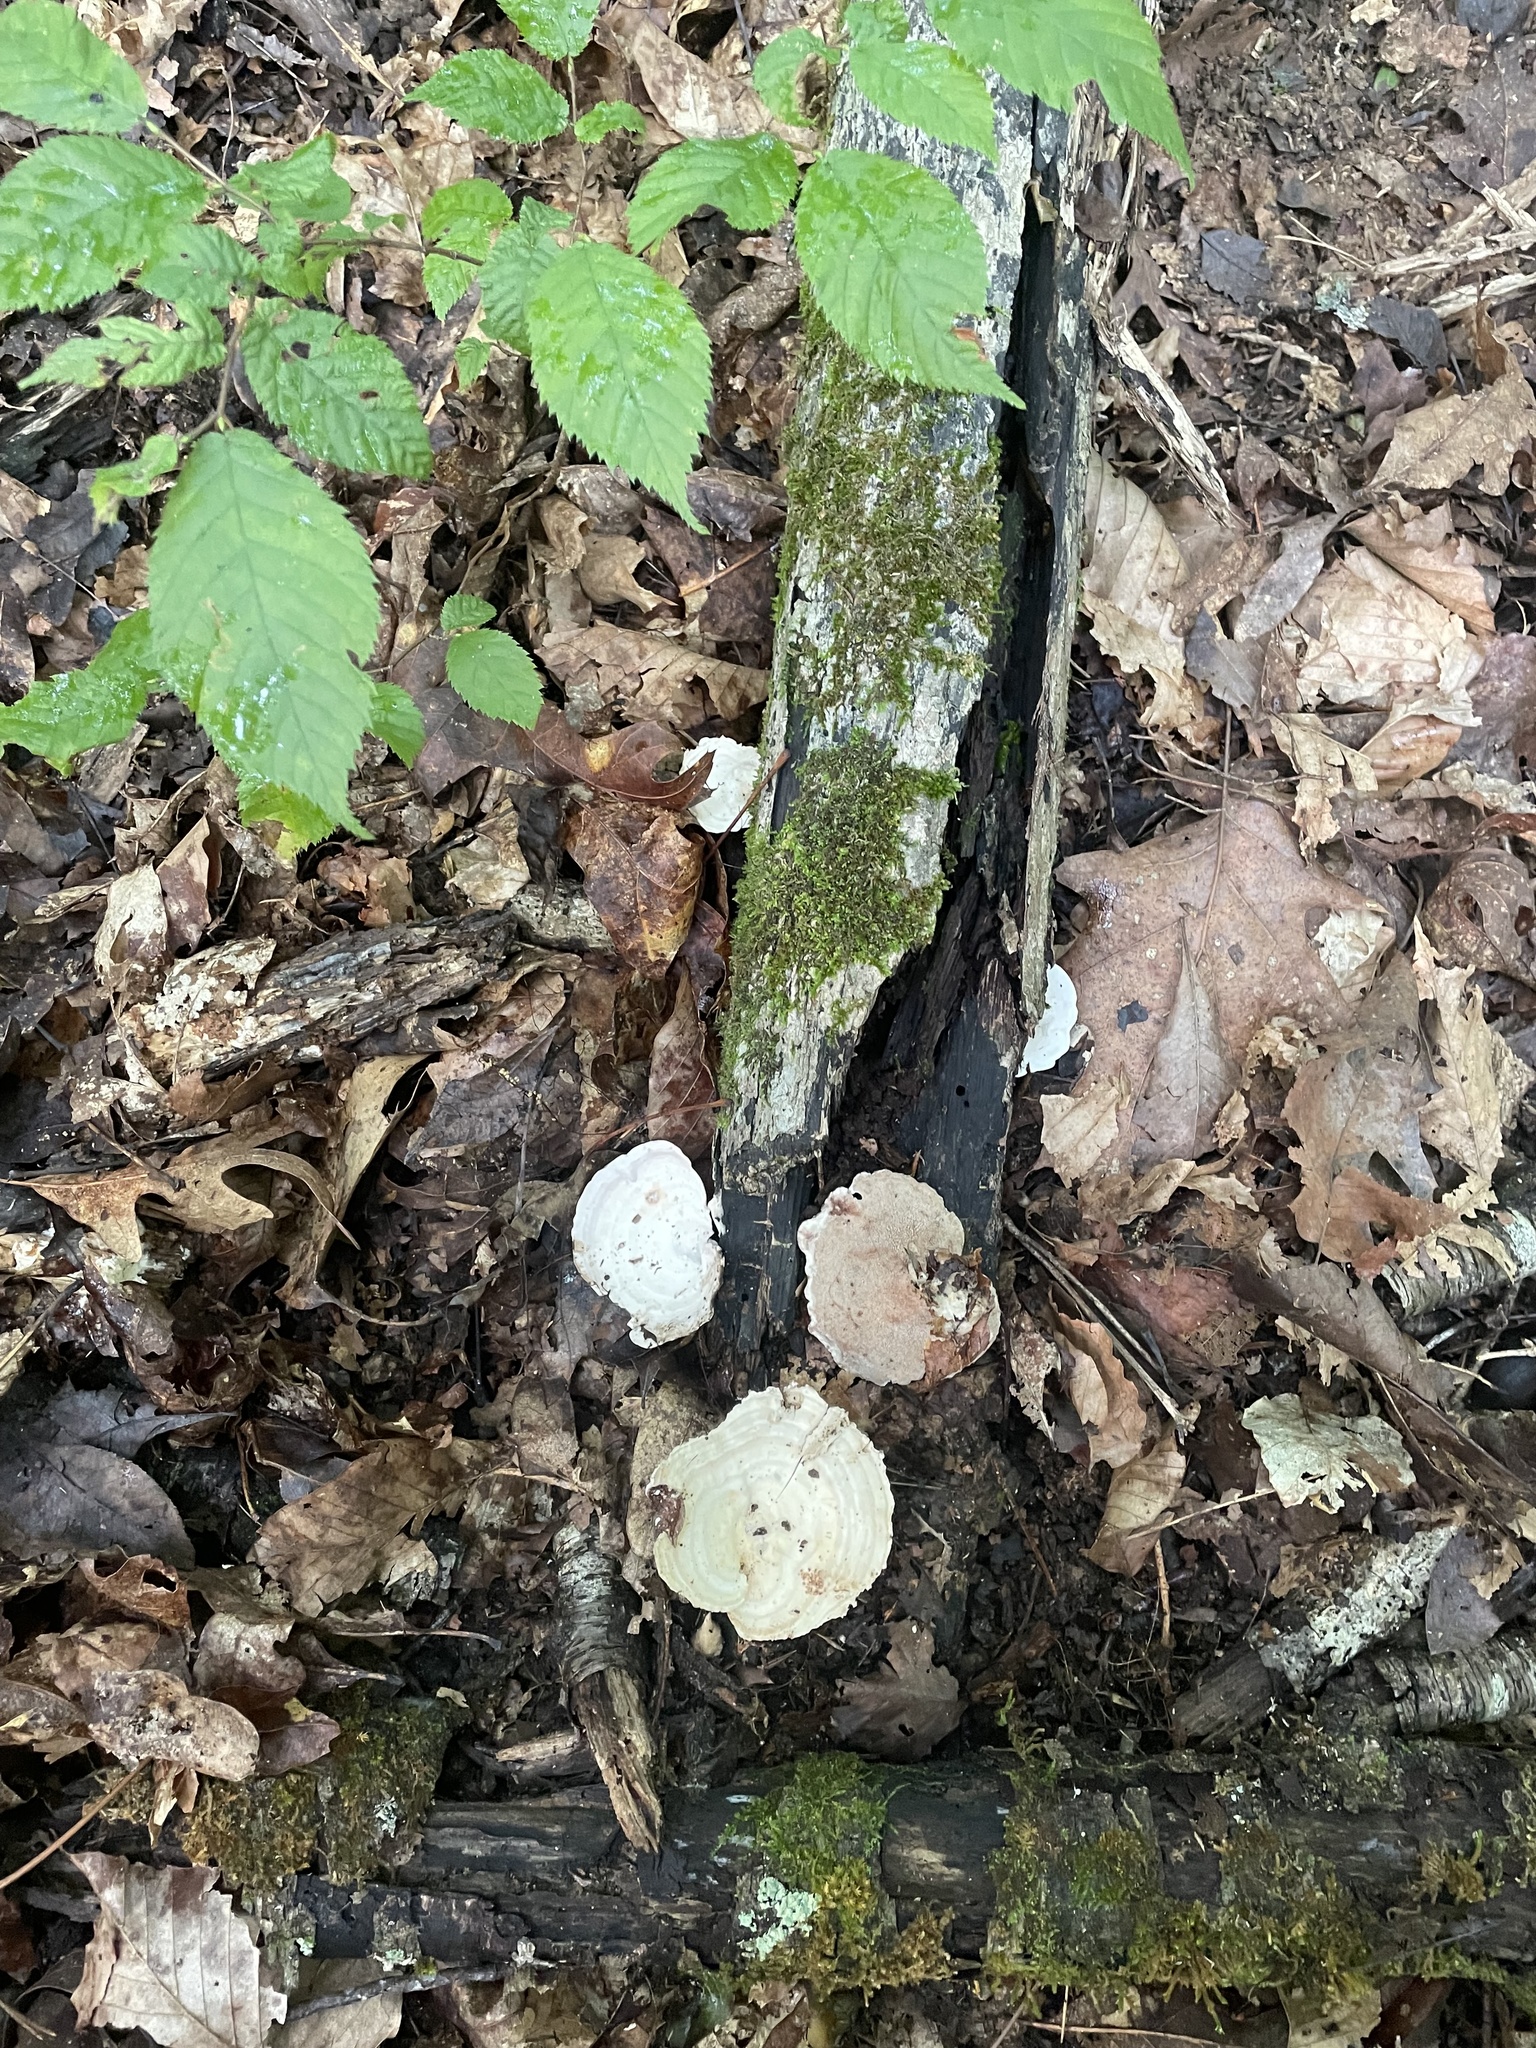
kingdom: Fungi
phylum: Basidiomycota
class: Agaricomycetes
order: Polyporales
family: Steccherinaceae
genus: Mycorrhaphium
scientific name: Mycorrhaphium adustum
